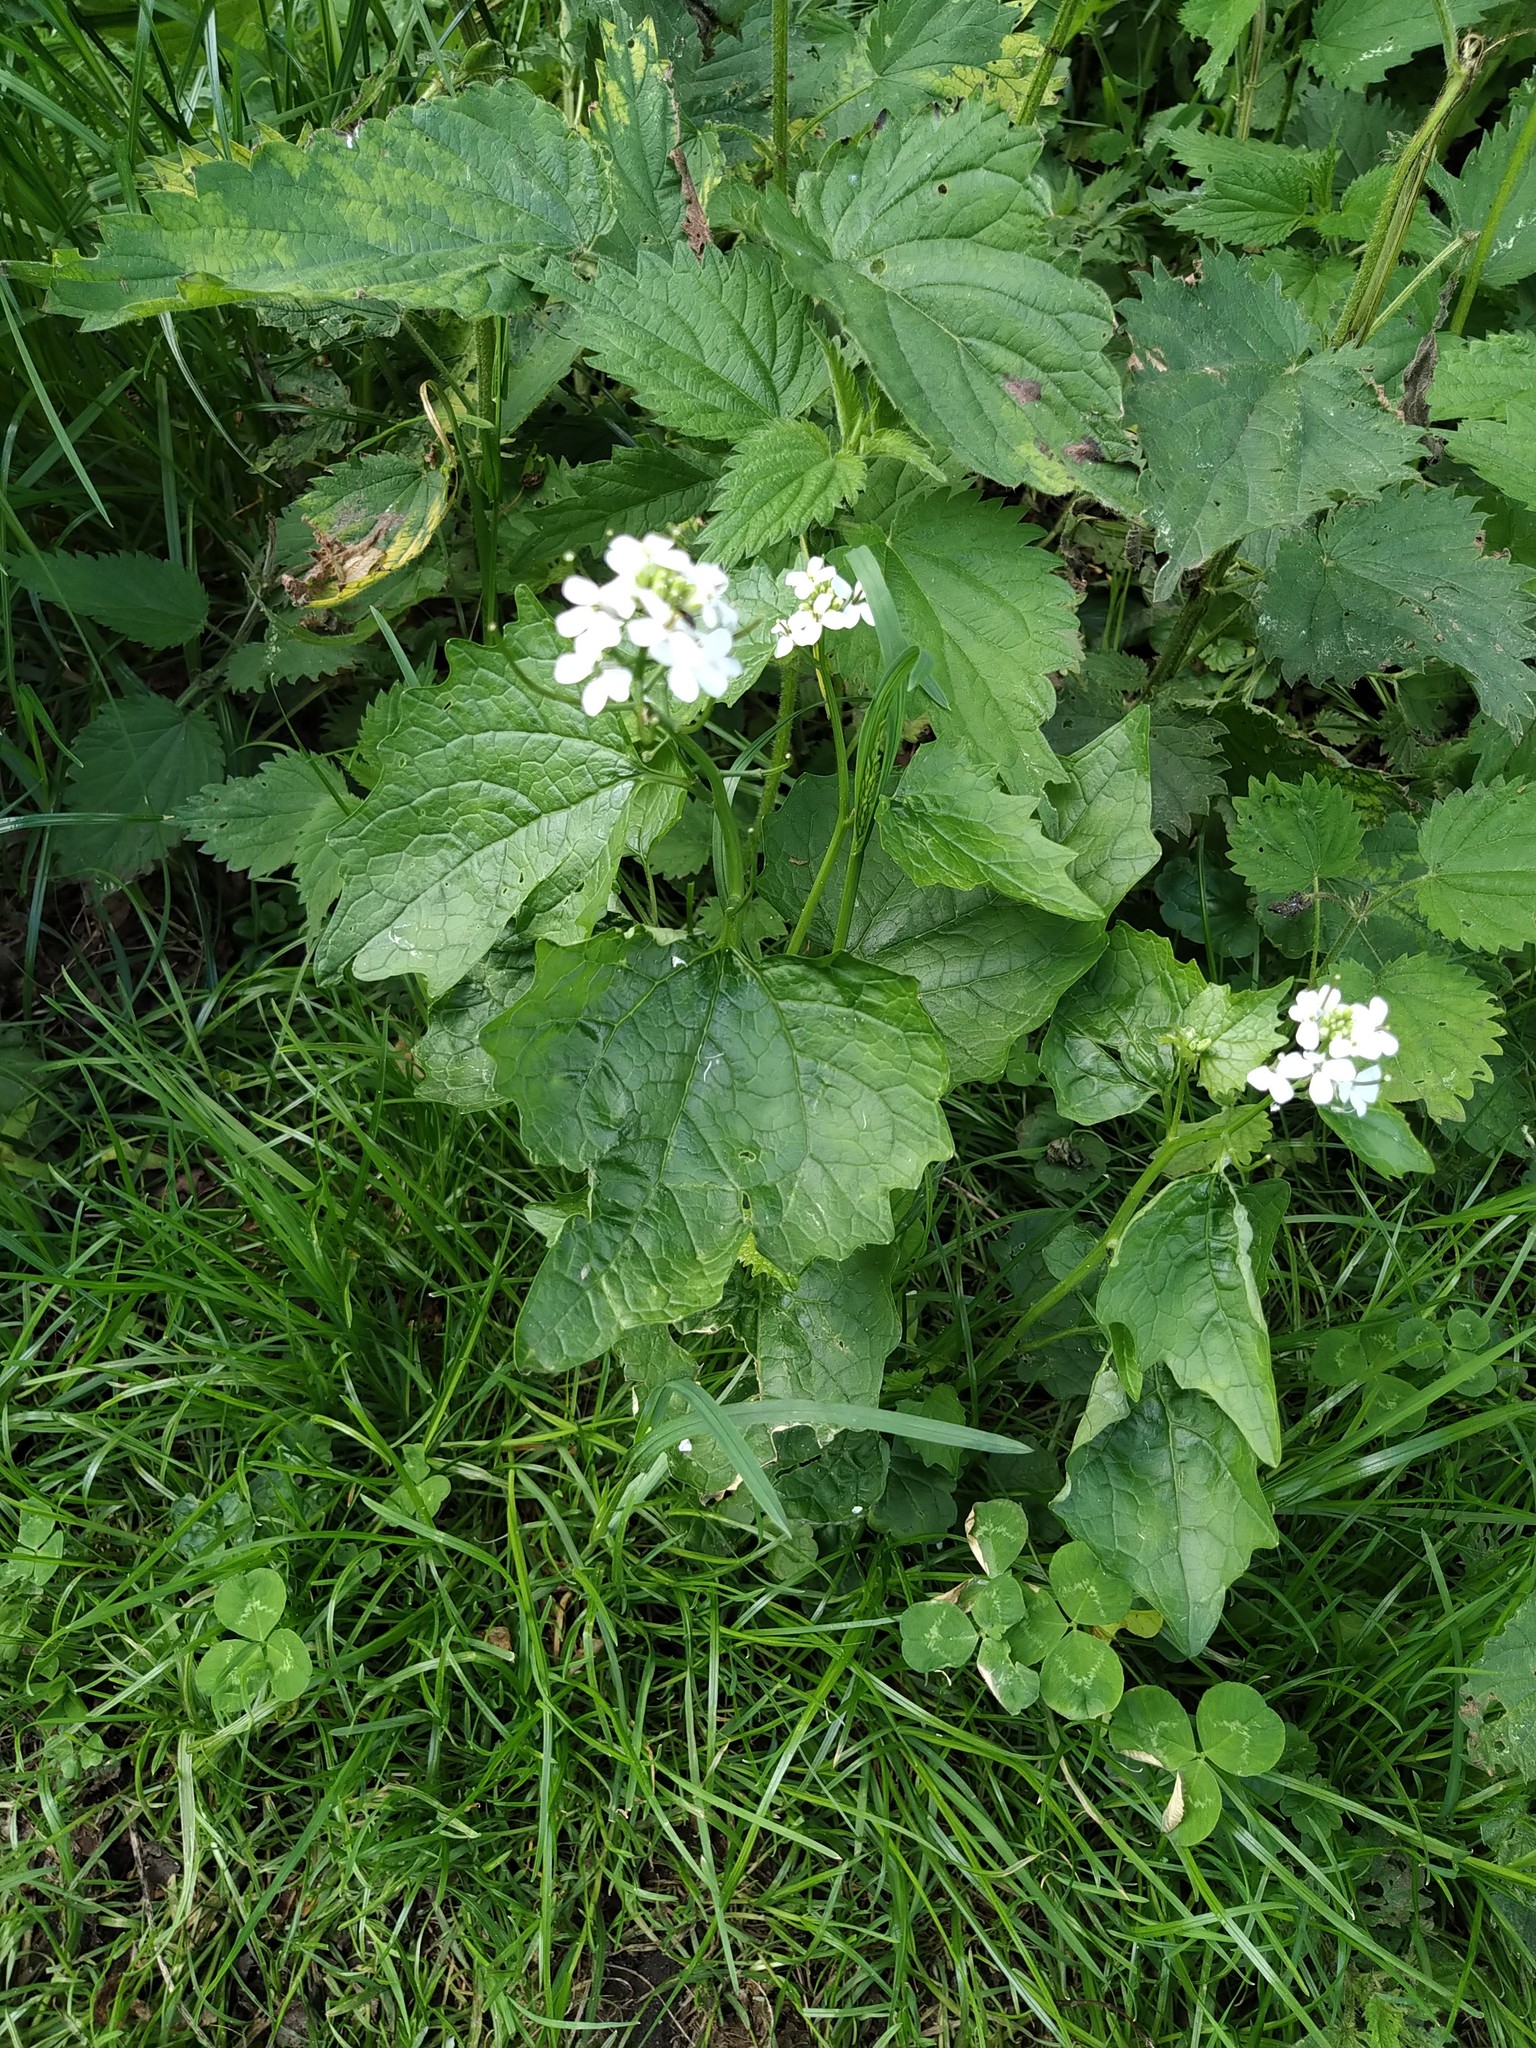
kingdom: Plantae
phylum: Tracheophyta
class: Magnoliopsida
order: Brassicales
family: Brassicaceae
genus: Alliaria
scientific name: Alliaria petiolata
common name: Garlic mustard
